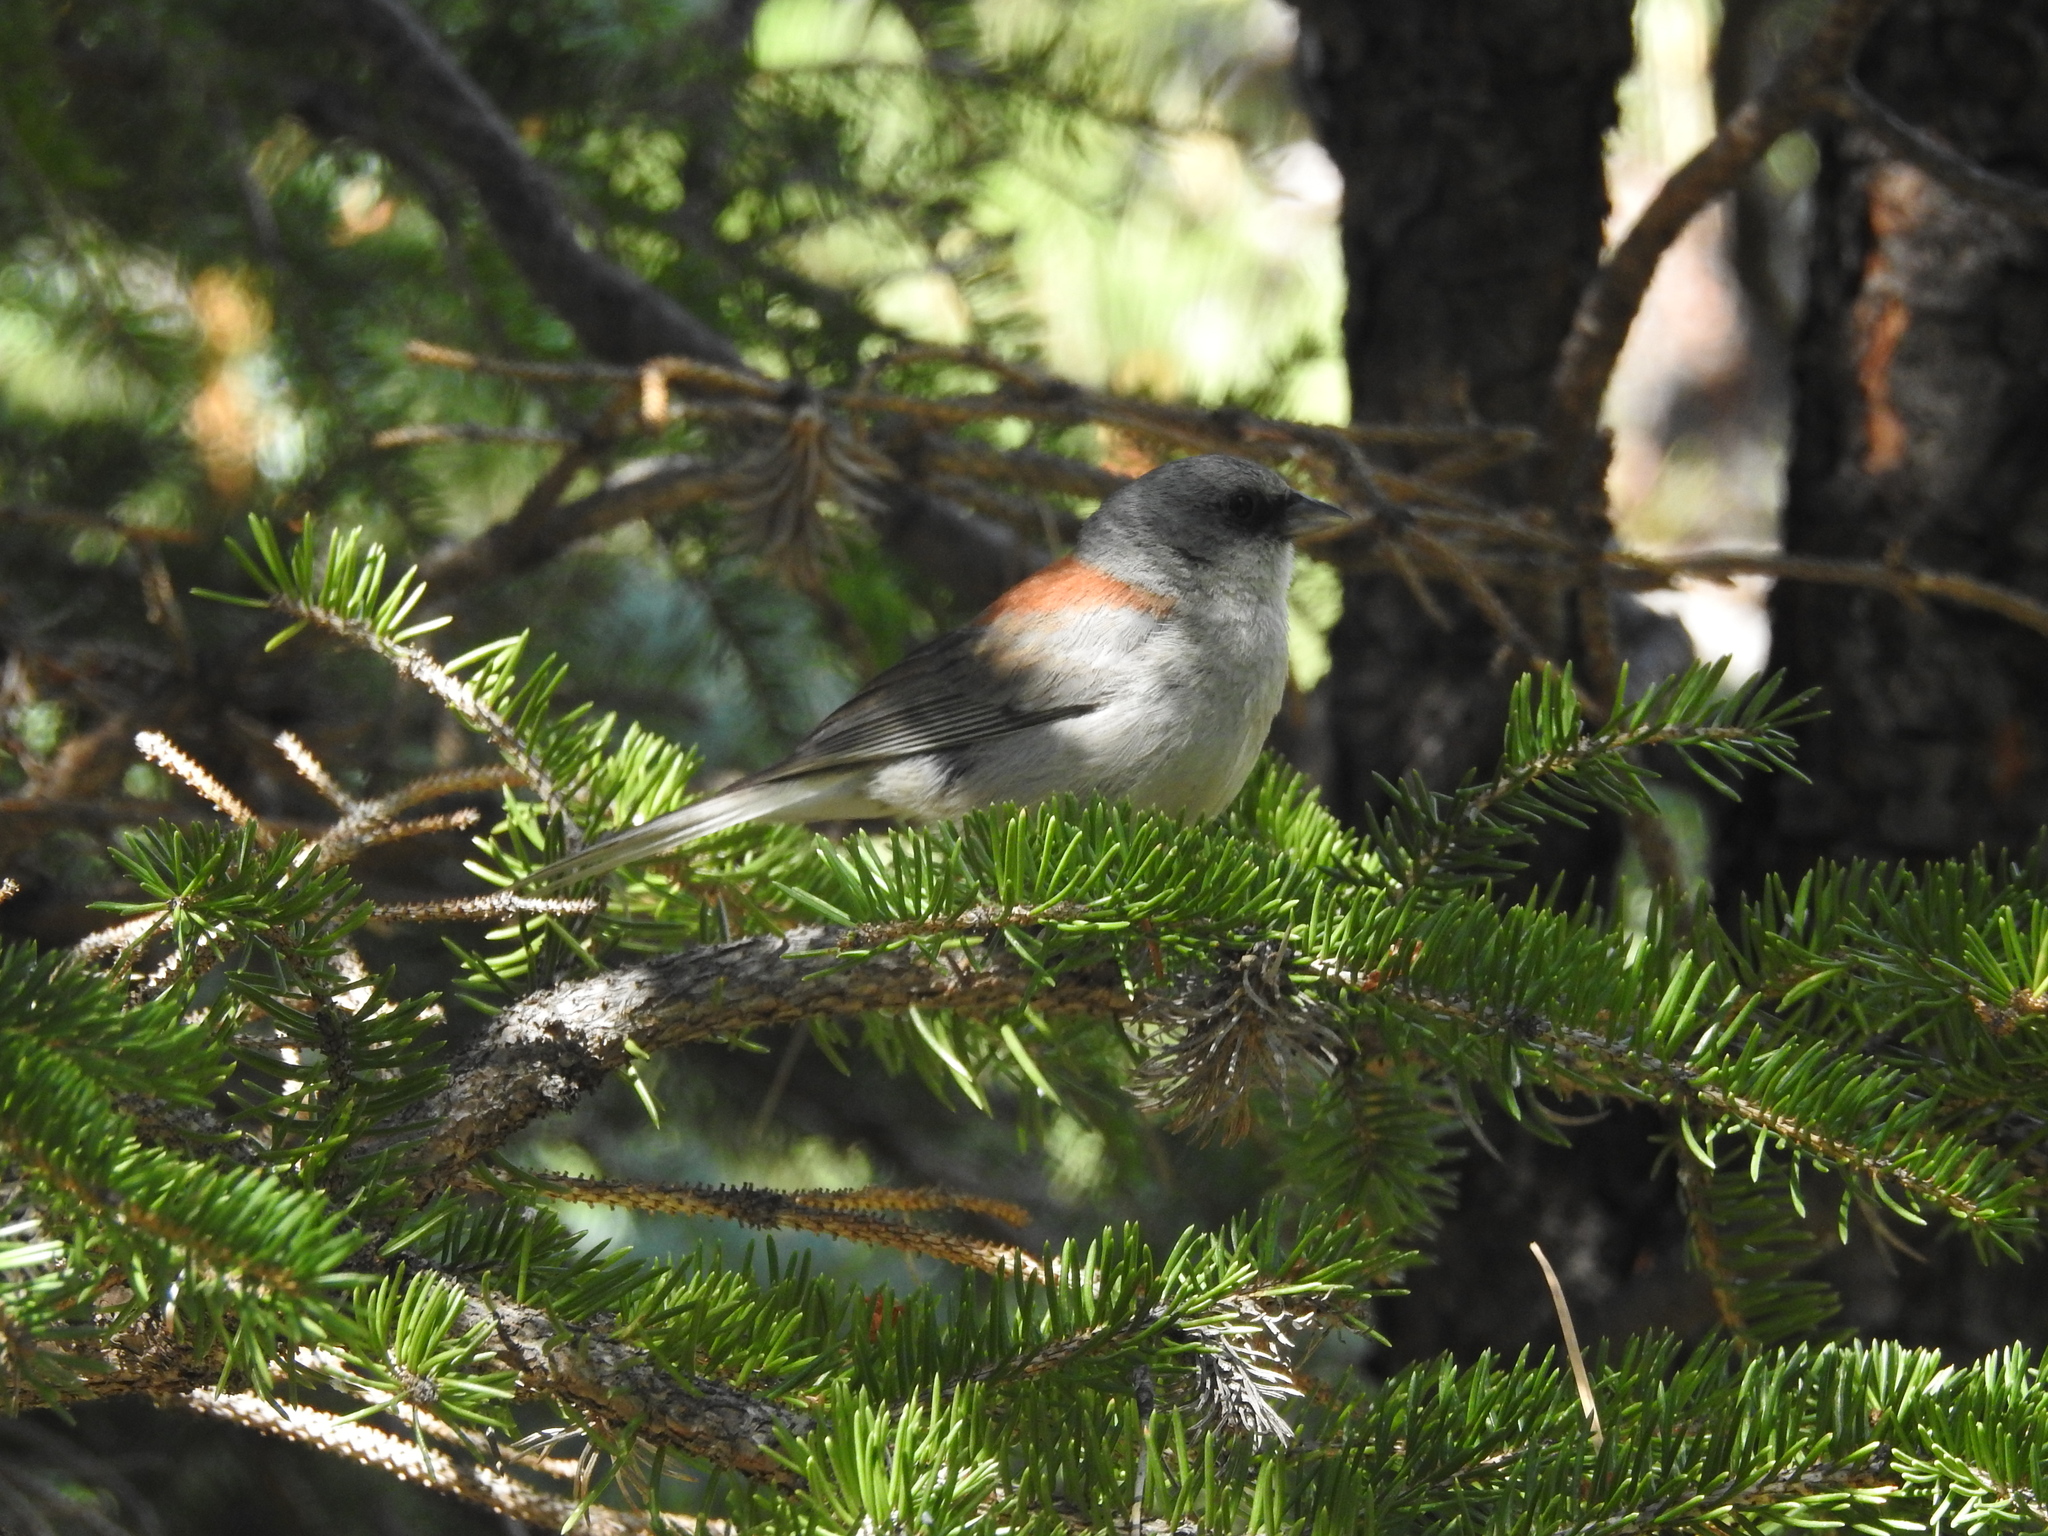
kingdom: Animalia
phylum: Chordata
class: Aves
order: Passeriformes
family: Passerellidae
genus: Junco
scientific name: Junco hyemalis
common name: Dark-eyed junco
